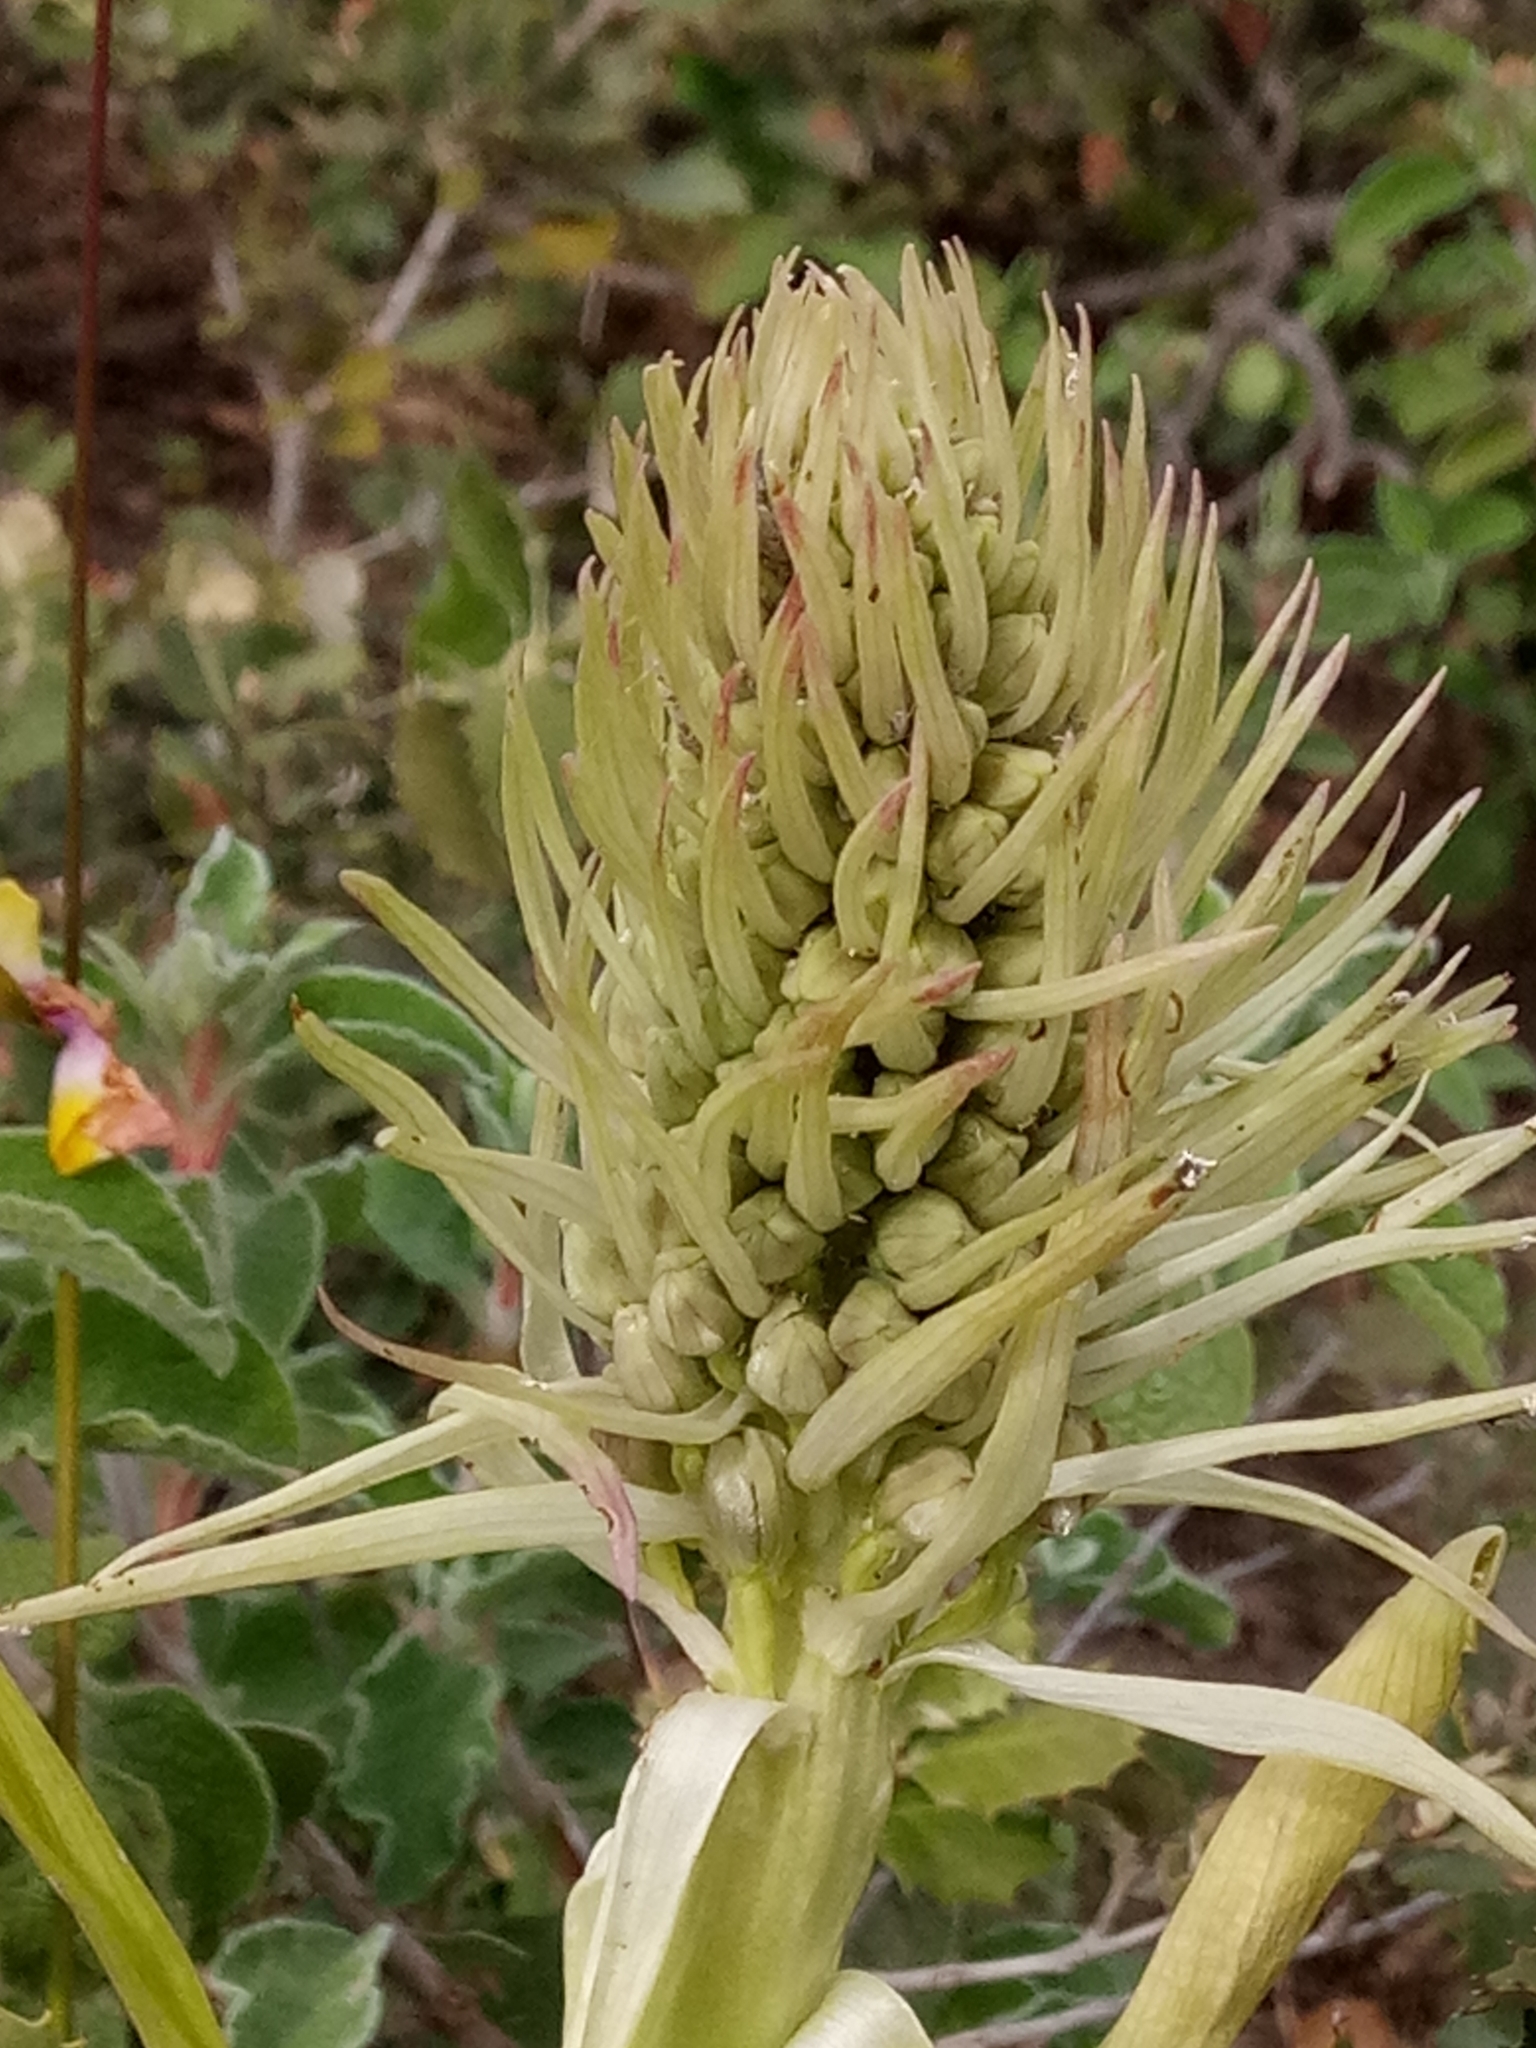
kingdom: Plantae
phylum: Tracheophyta
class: Liliopsida
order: Asparagales
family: Orchidaceae
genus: Himantoglossum
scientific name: Himantoglossum hircinum
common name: Lizard orchid
